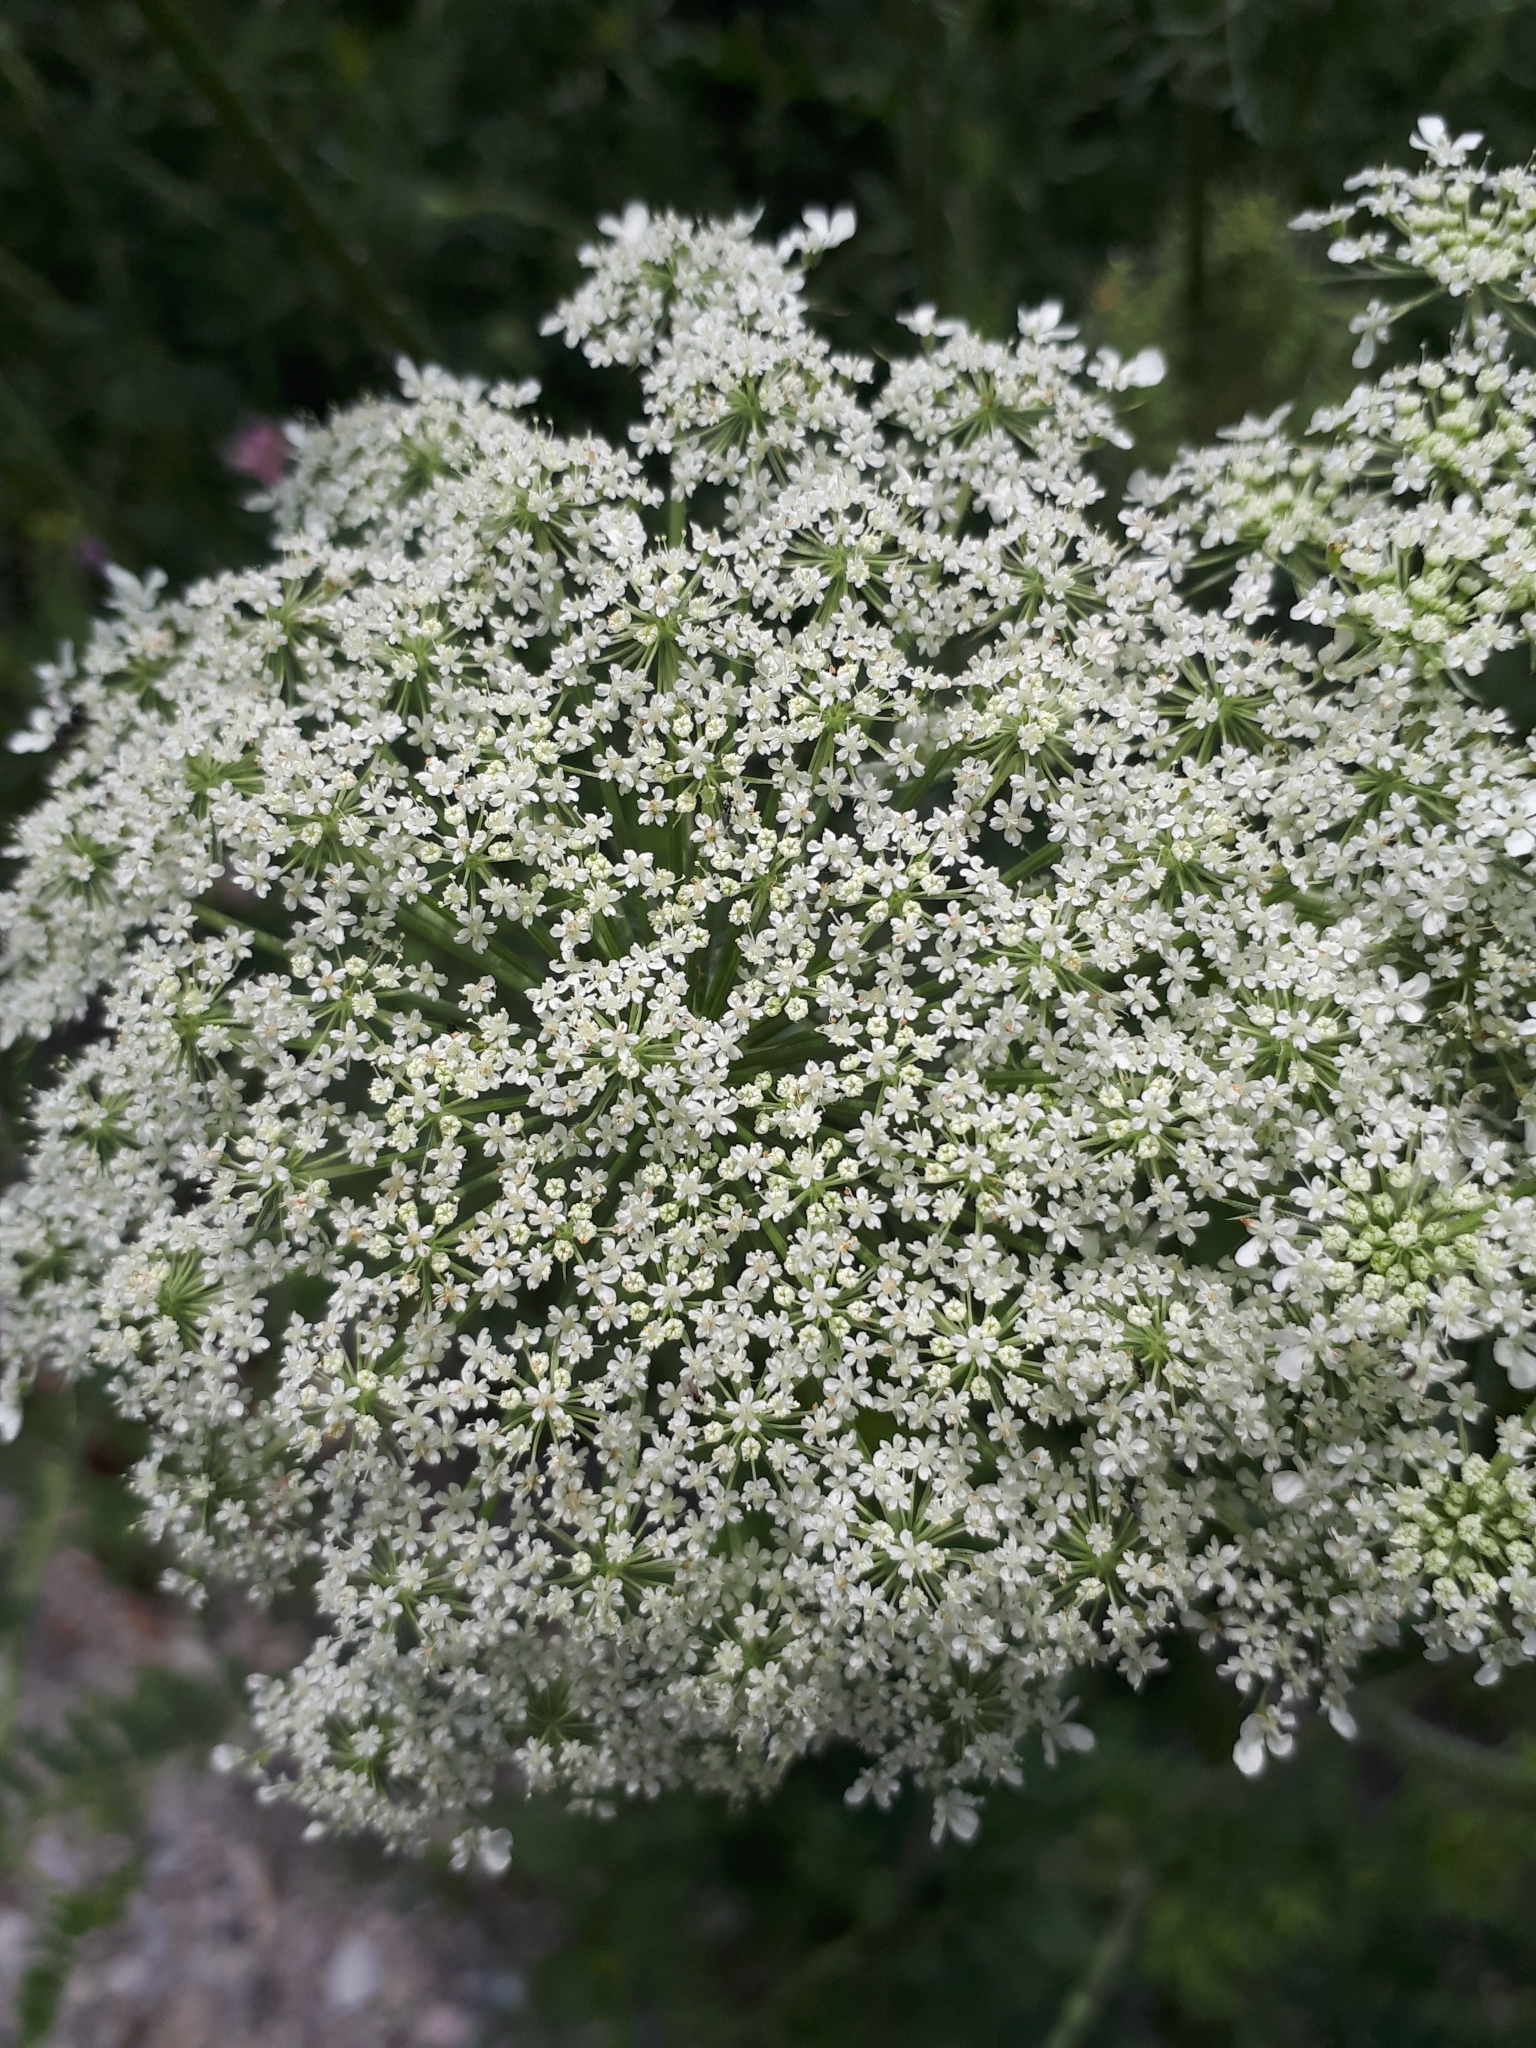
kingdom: Plantae
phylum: Tracheophyta
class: Magnoliopsida
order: Apiales
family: Apiaceae
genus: Daucus
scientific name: Daucus carota
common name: Wild carrot
